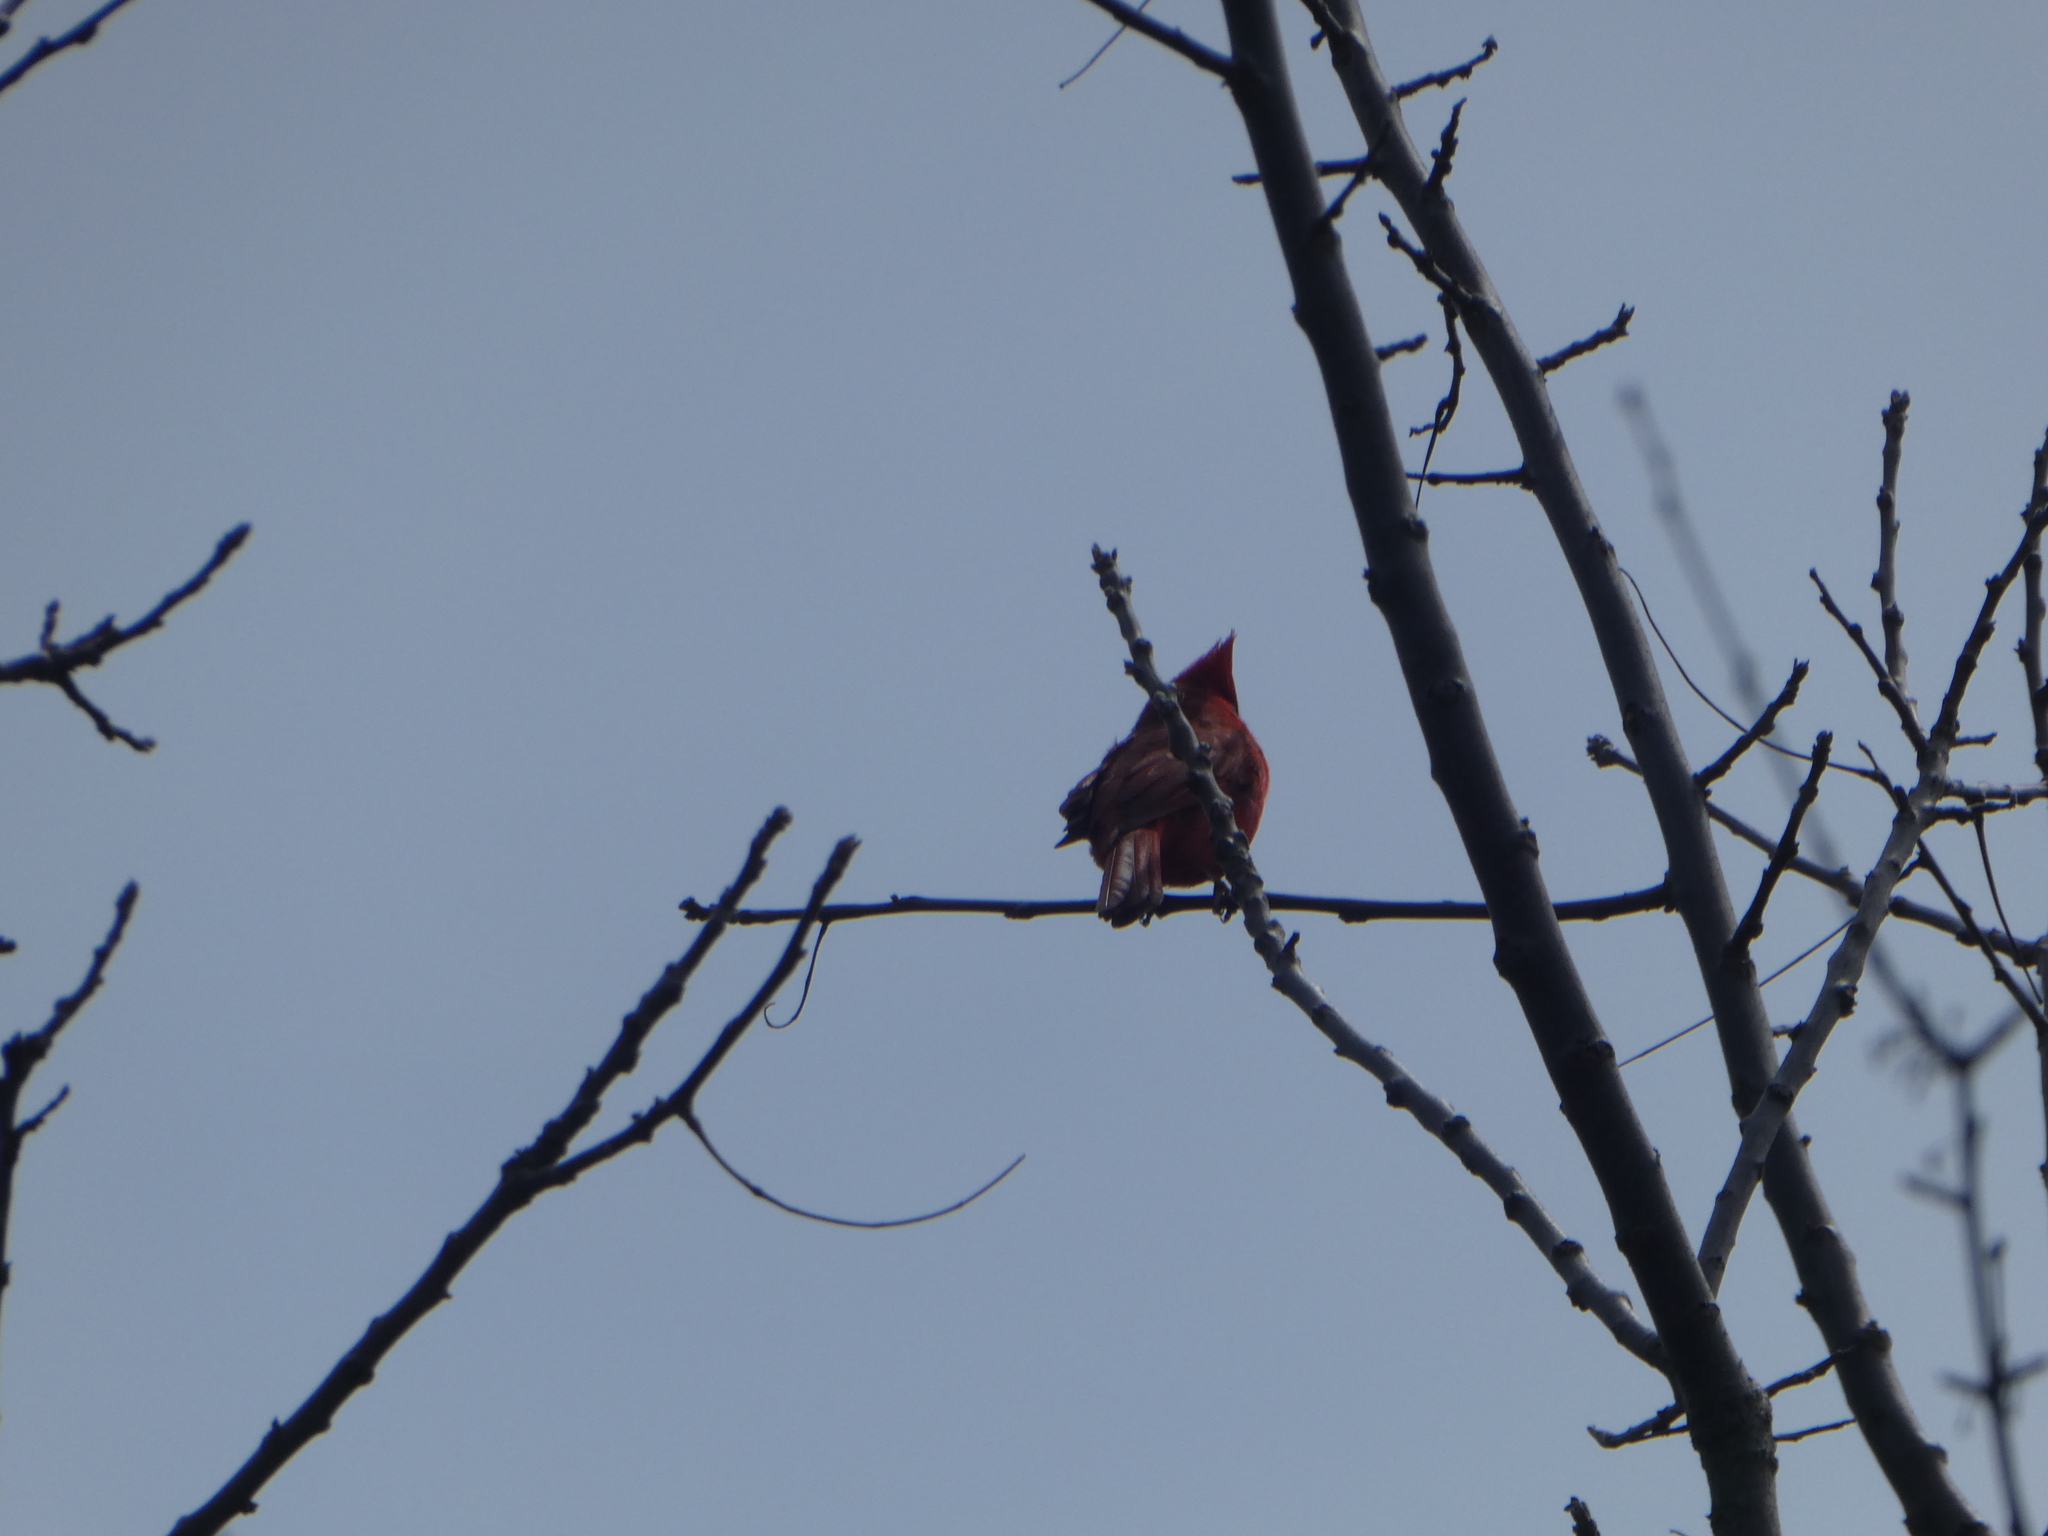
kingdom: Animalia
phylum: Chordata
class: Aves
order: Passeriformes
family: Cardinalidae
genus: Cardinalis
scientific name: Cardinalis cardinalis
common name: Northern cardinal
